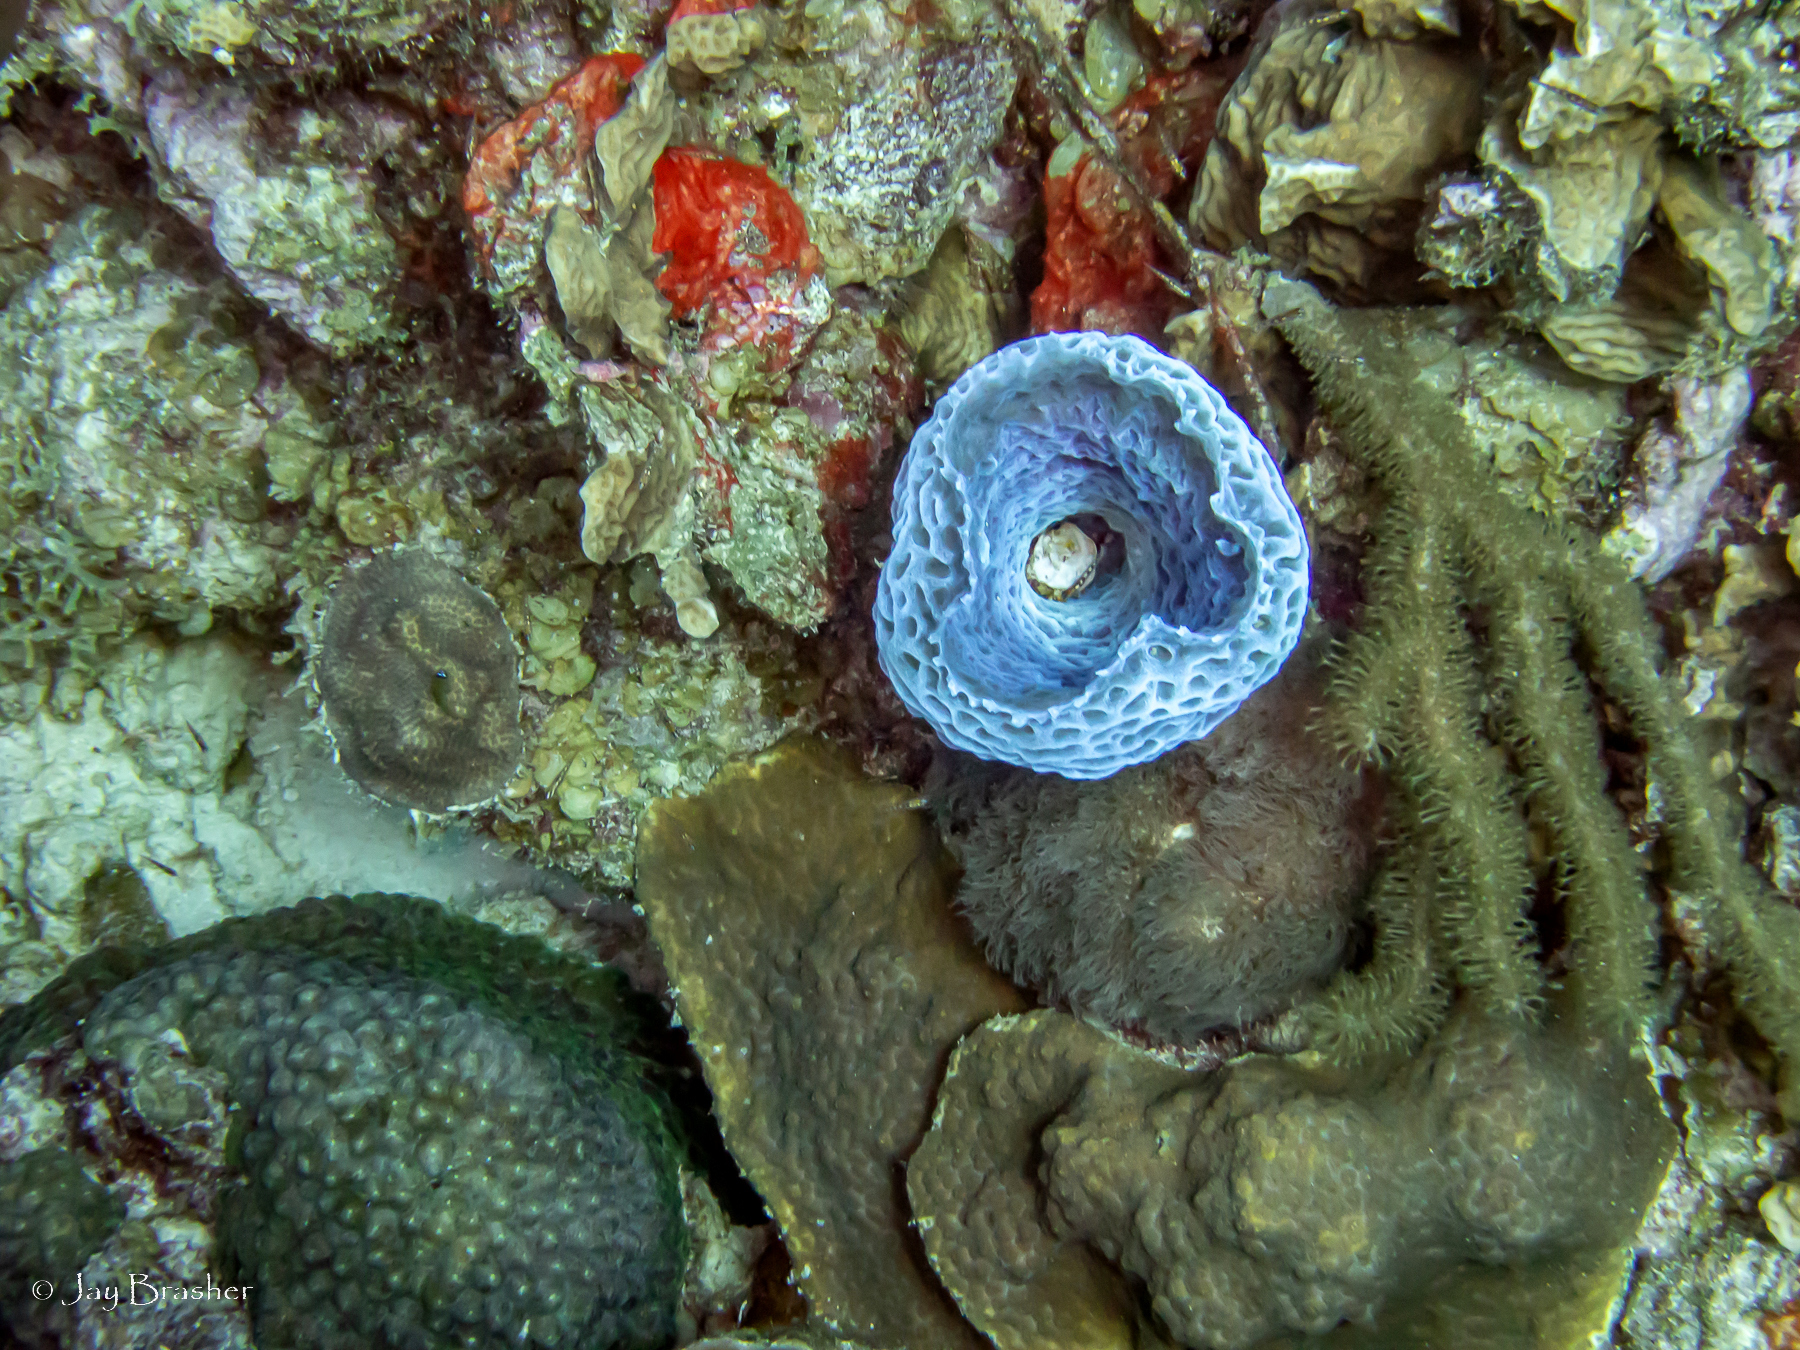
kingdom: Animalia
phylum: Cnidaria
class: Anthozoa
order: Scleractinia
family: Montastraeidae
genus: Montastraea
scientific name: Montastraea cavernosa
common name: Great star coral
